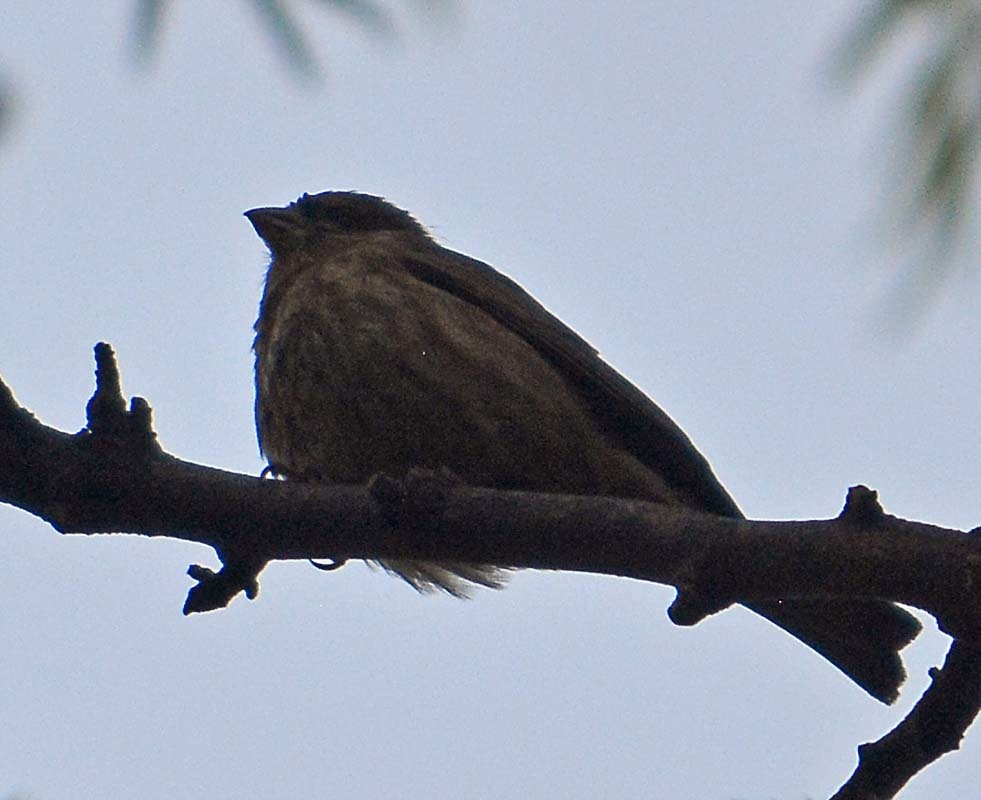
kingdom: Animalia
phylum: Chordata
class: Aves
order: Passeriformes
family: Fringillidae
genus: Haemorhous
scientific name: Haemorhous mexicanus
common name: House finch
